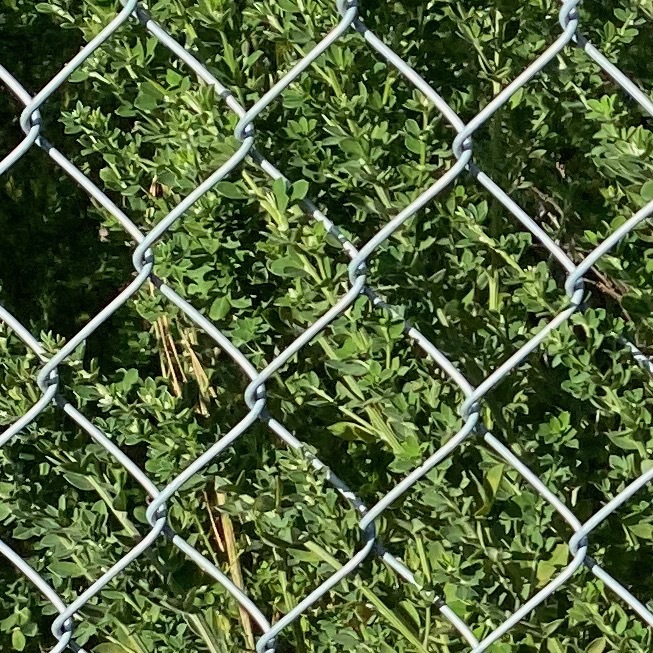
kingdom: Plantae
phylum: Tracheophyta
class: Magnoliopsida
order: Fabales
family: Fabaceae
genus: Genista
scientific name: Genista monspessulana
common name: Montpellier broom
